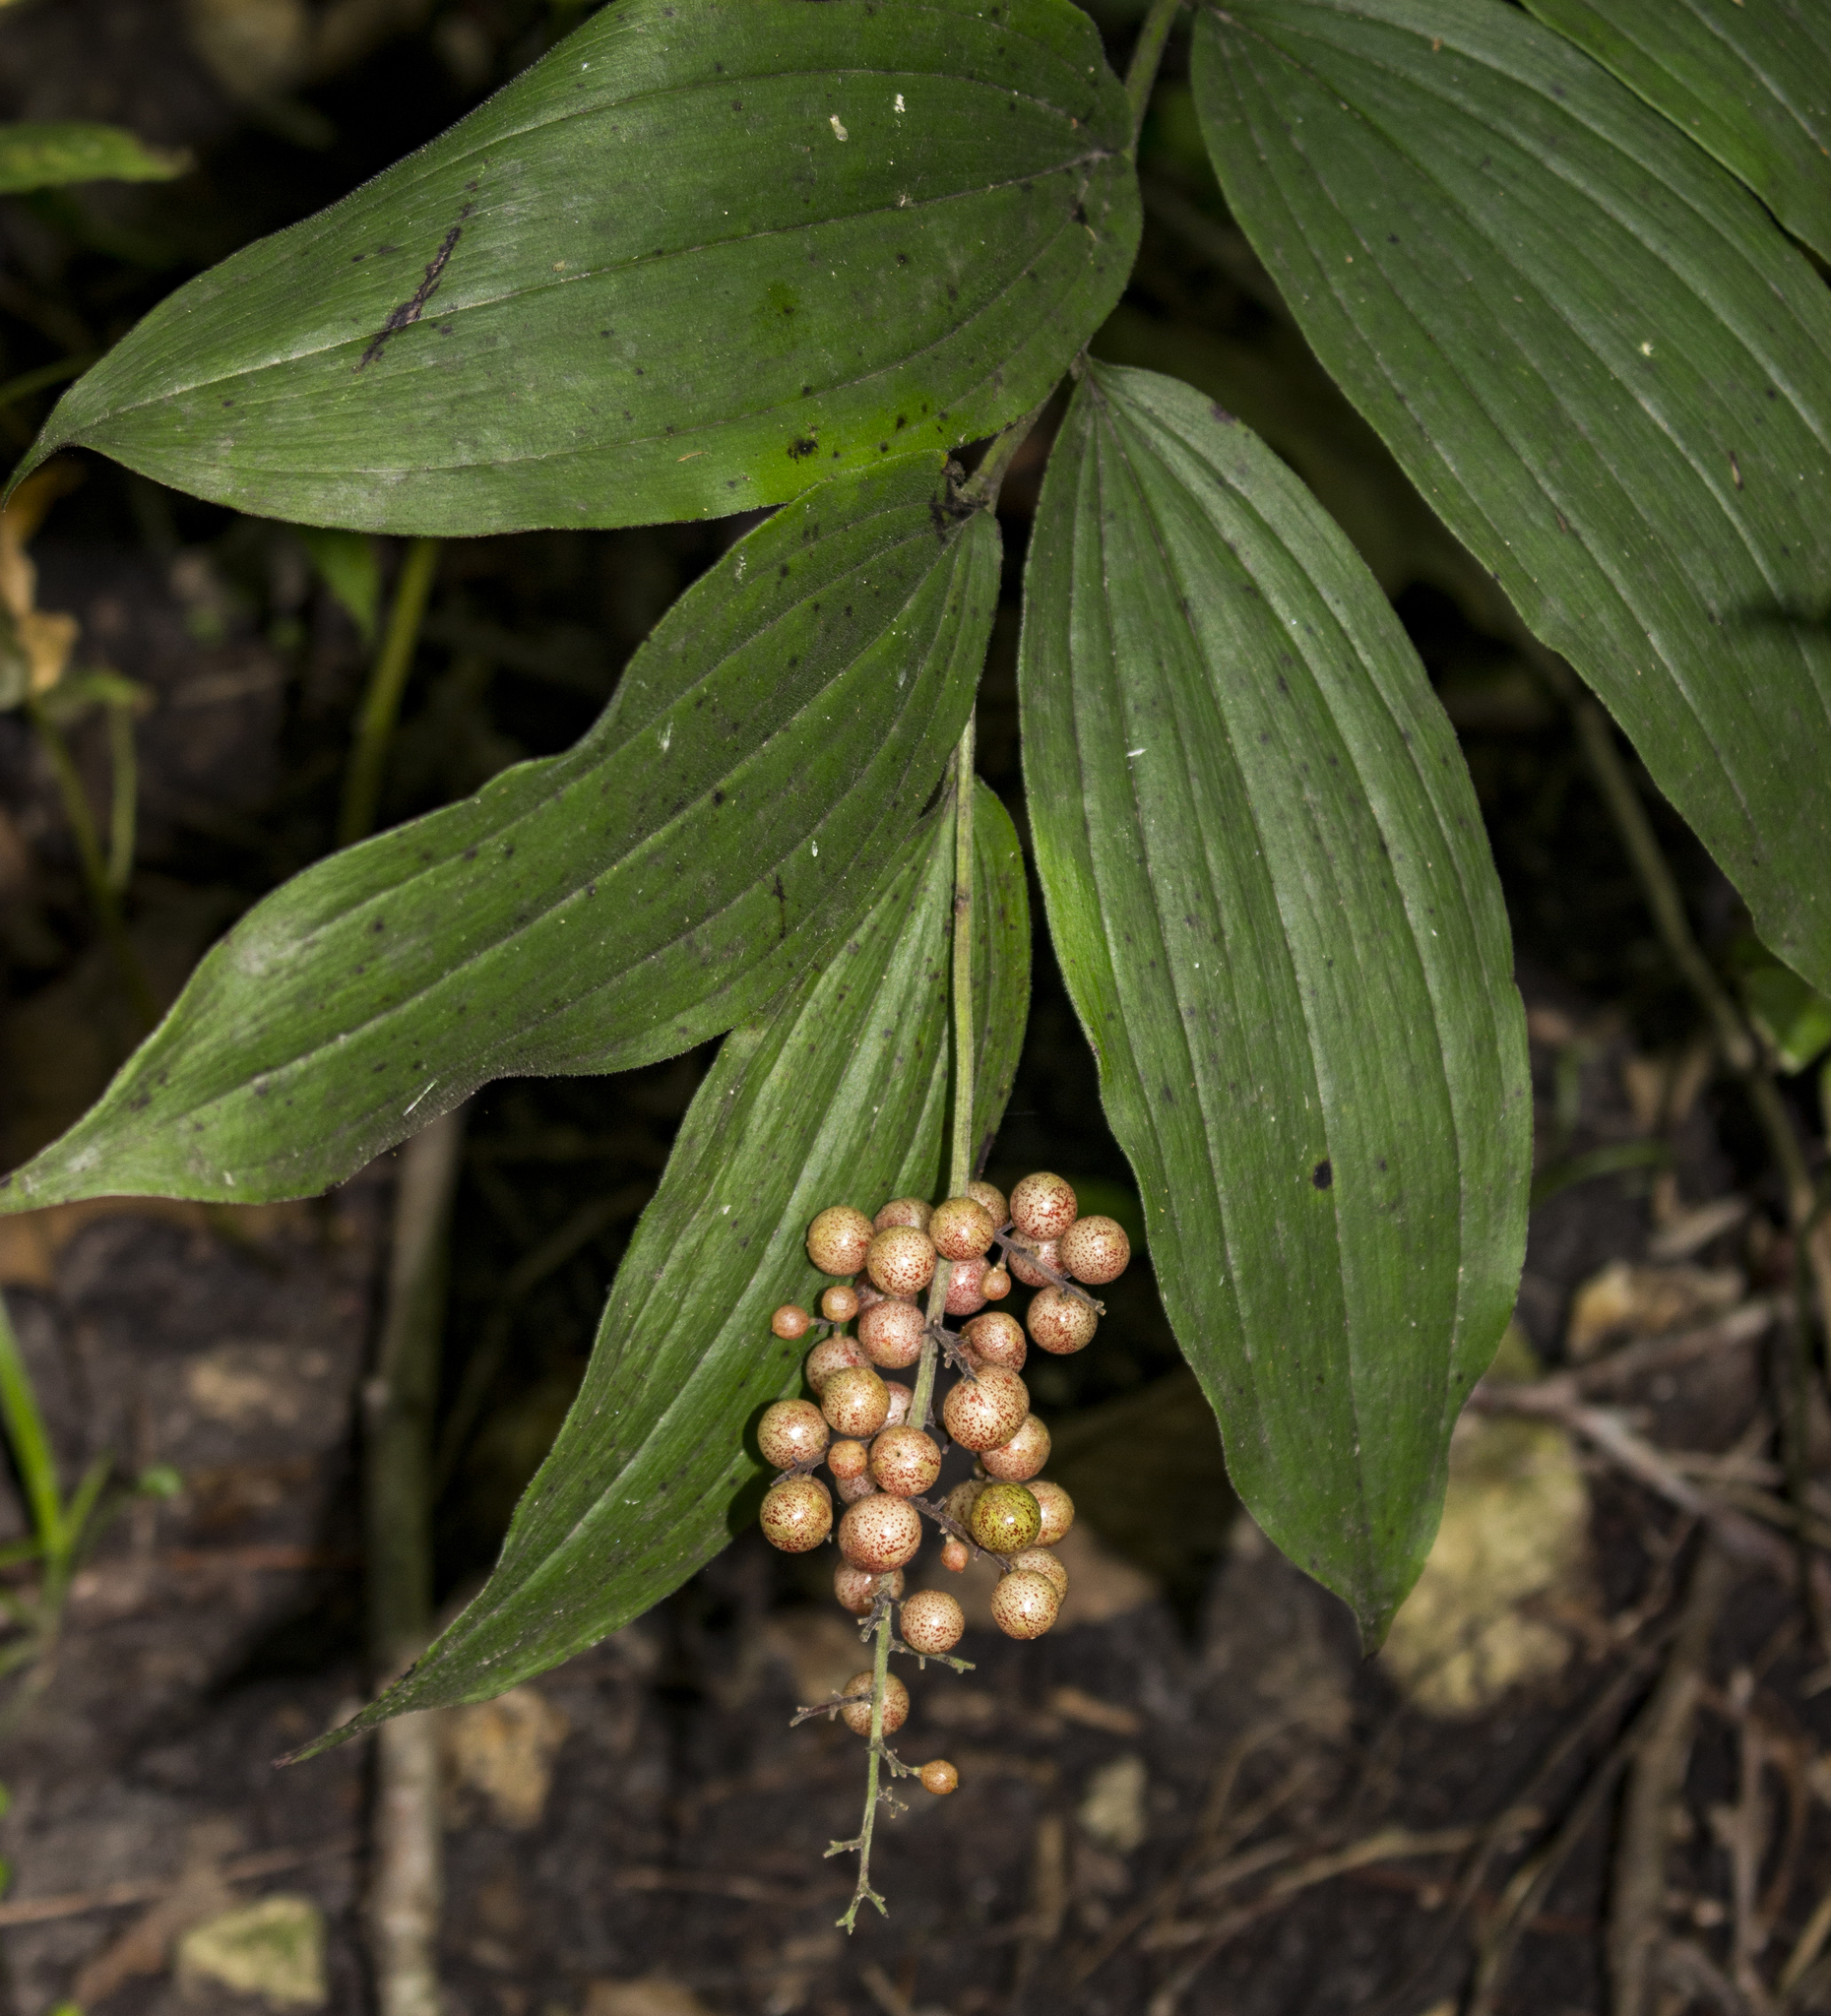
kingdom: Plantae
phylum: Tracheophyta
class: Liliopsida
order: Asparagales
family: Asparagaceae
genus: Maianthemum
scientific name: Maianthemum racemosum
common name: False spikenard
